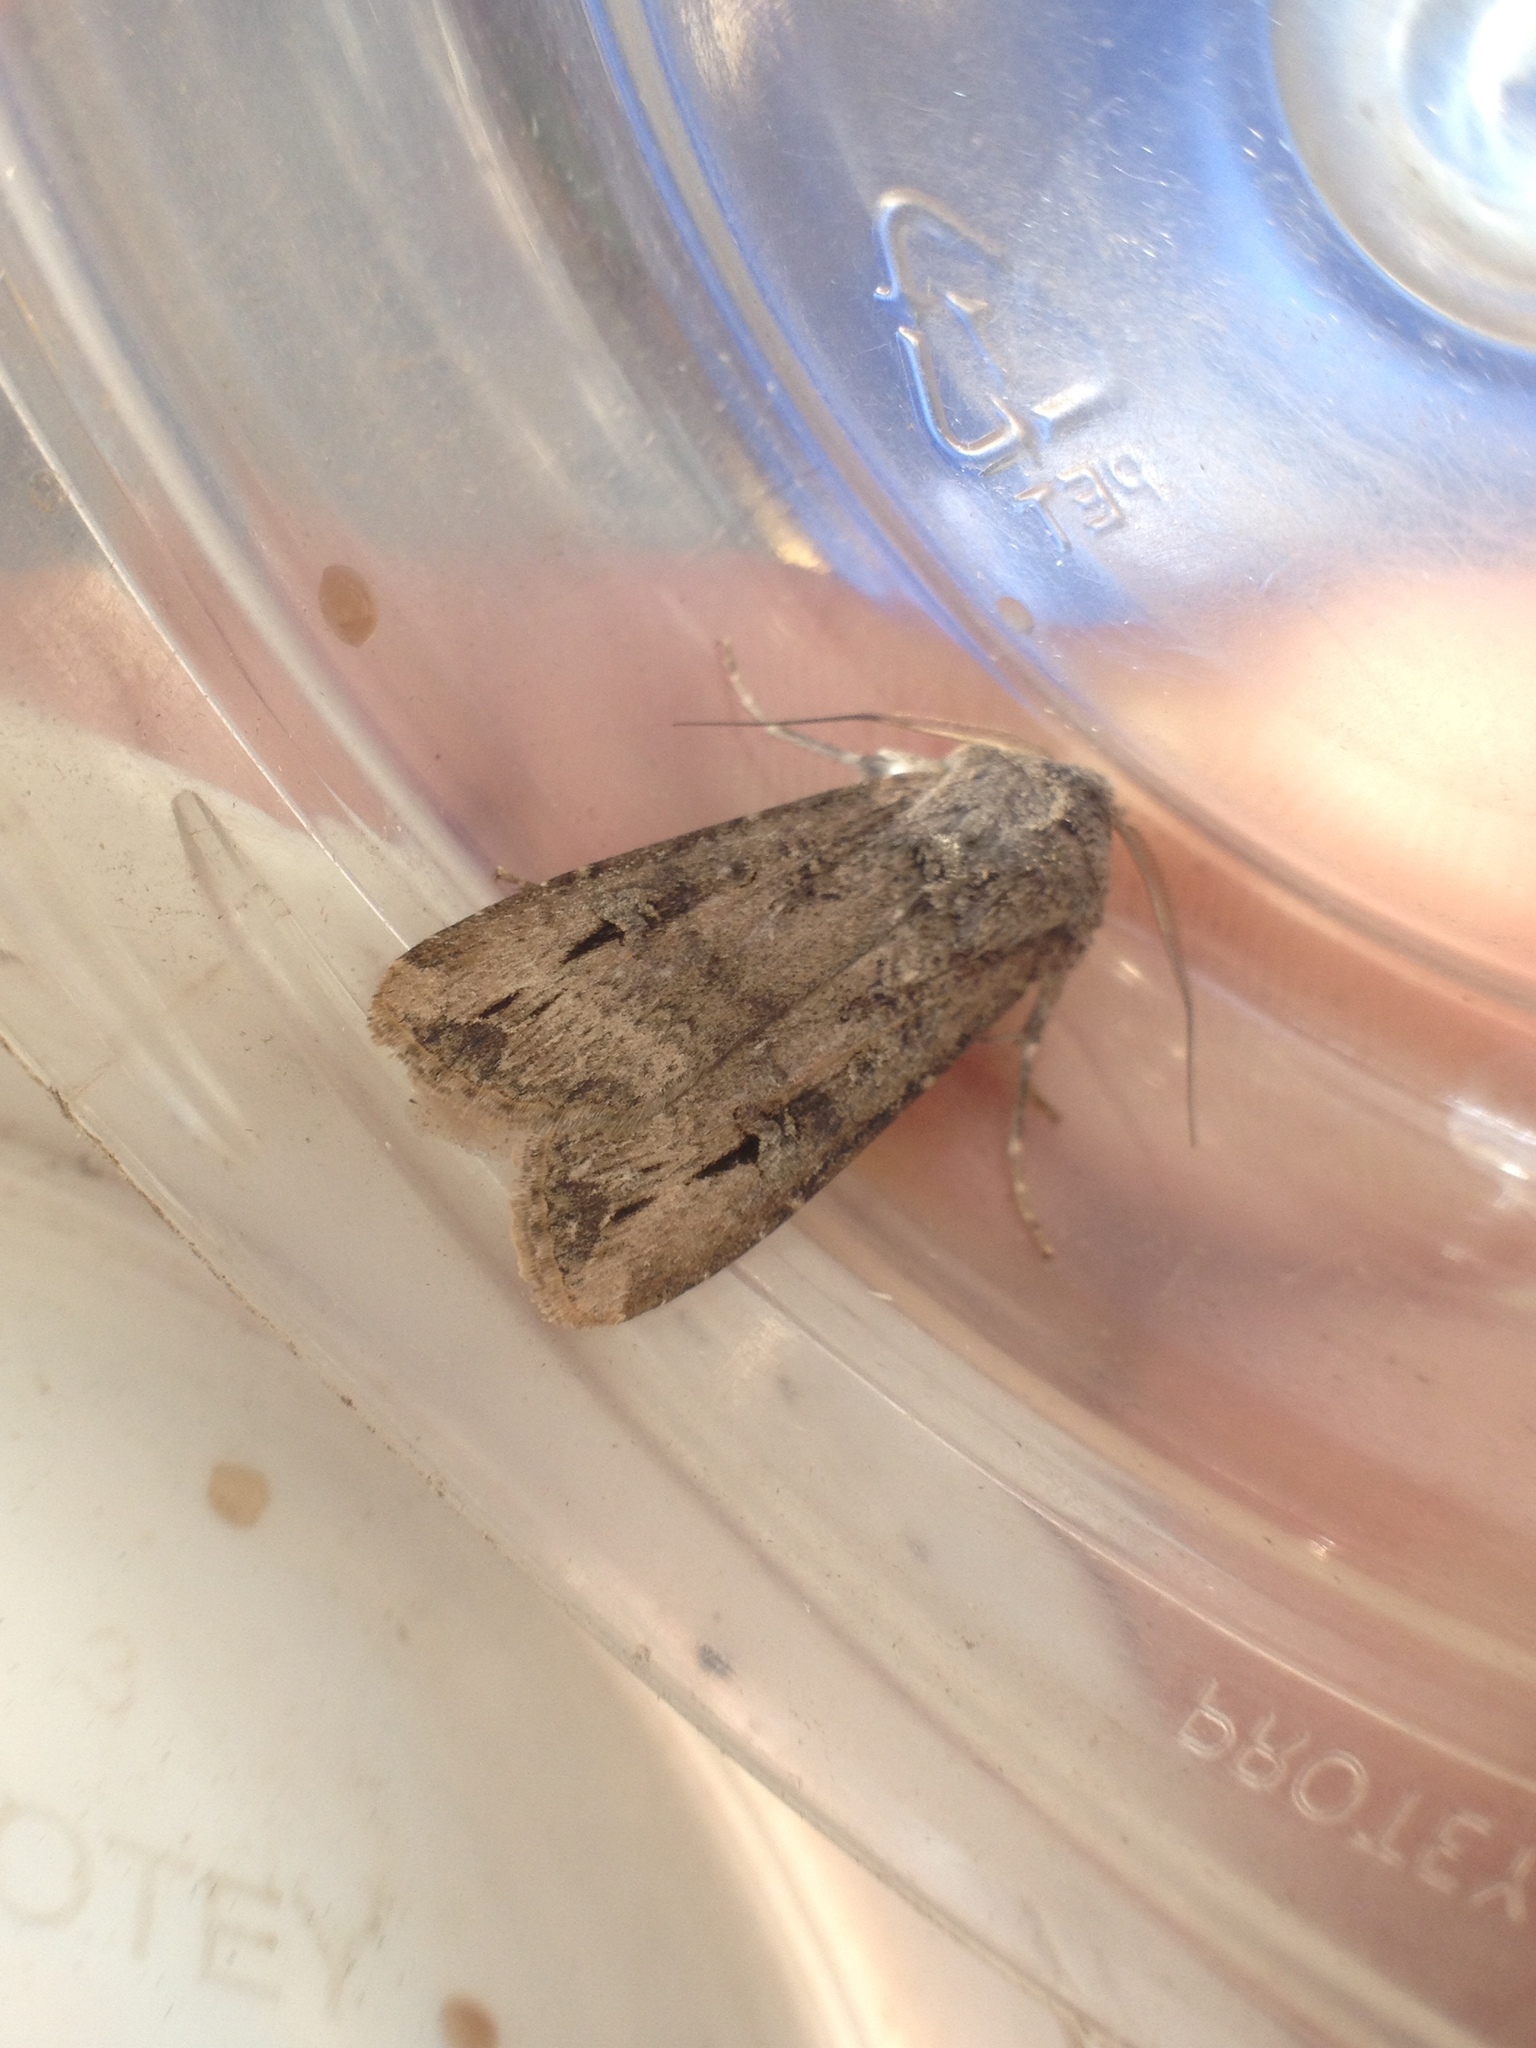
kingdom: Animalia
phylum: Arthropoda
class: Insecta
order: Lepidoptera
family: Noctuidae
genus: Agrotis
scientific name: Agrotis ipsilon
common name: Dark sword-grass
